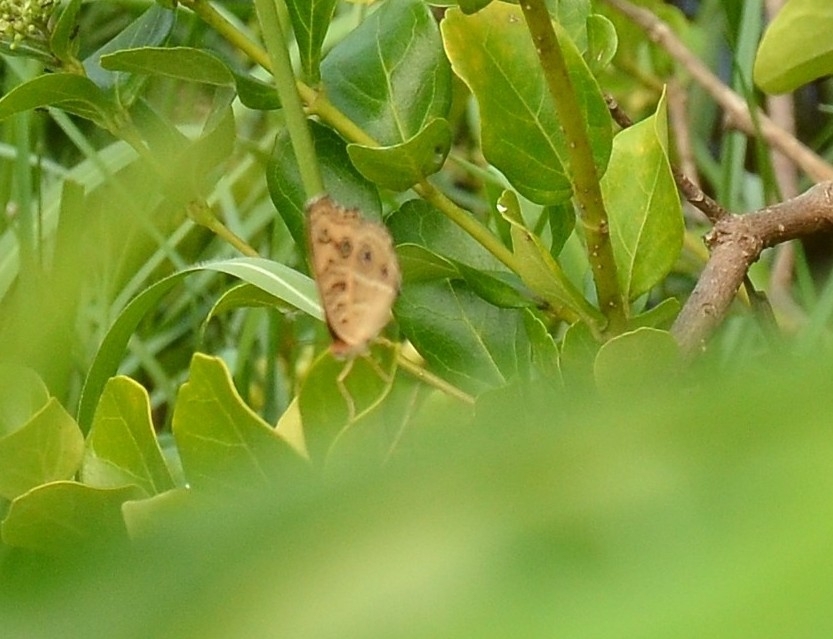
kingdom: Animalia
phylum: Arthropoda
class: Insecta
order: Lepidoptera
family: Nymphalidae
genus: Junonia
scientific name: Junonia almana
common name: Peacock pansy
